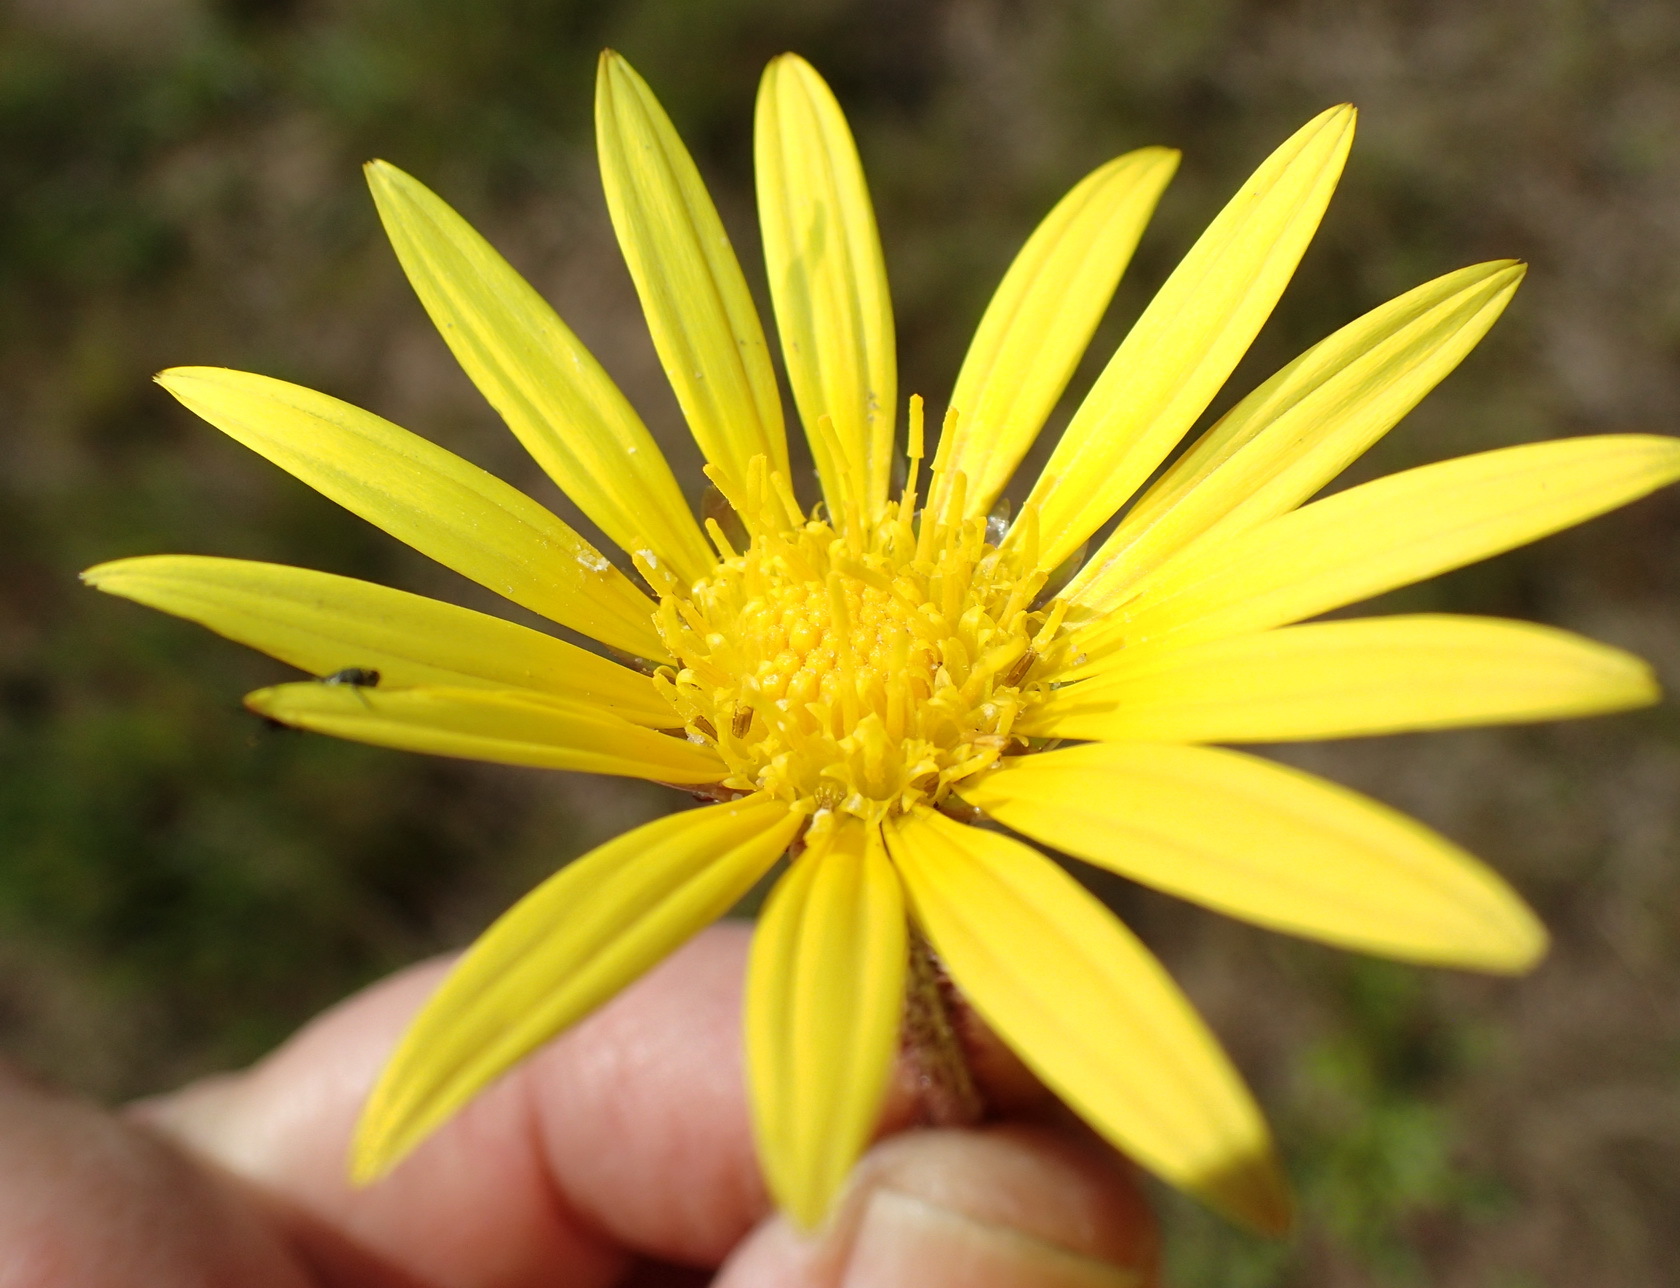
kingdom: Plantae
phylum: Tracheophyta
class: Magnoliopsida
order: Asterales
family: Asteraceae
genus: Arctotheca
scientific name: Arctotheca prostrata
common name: Capeweed
